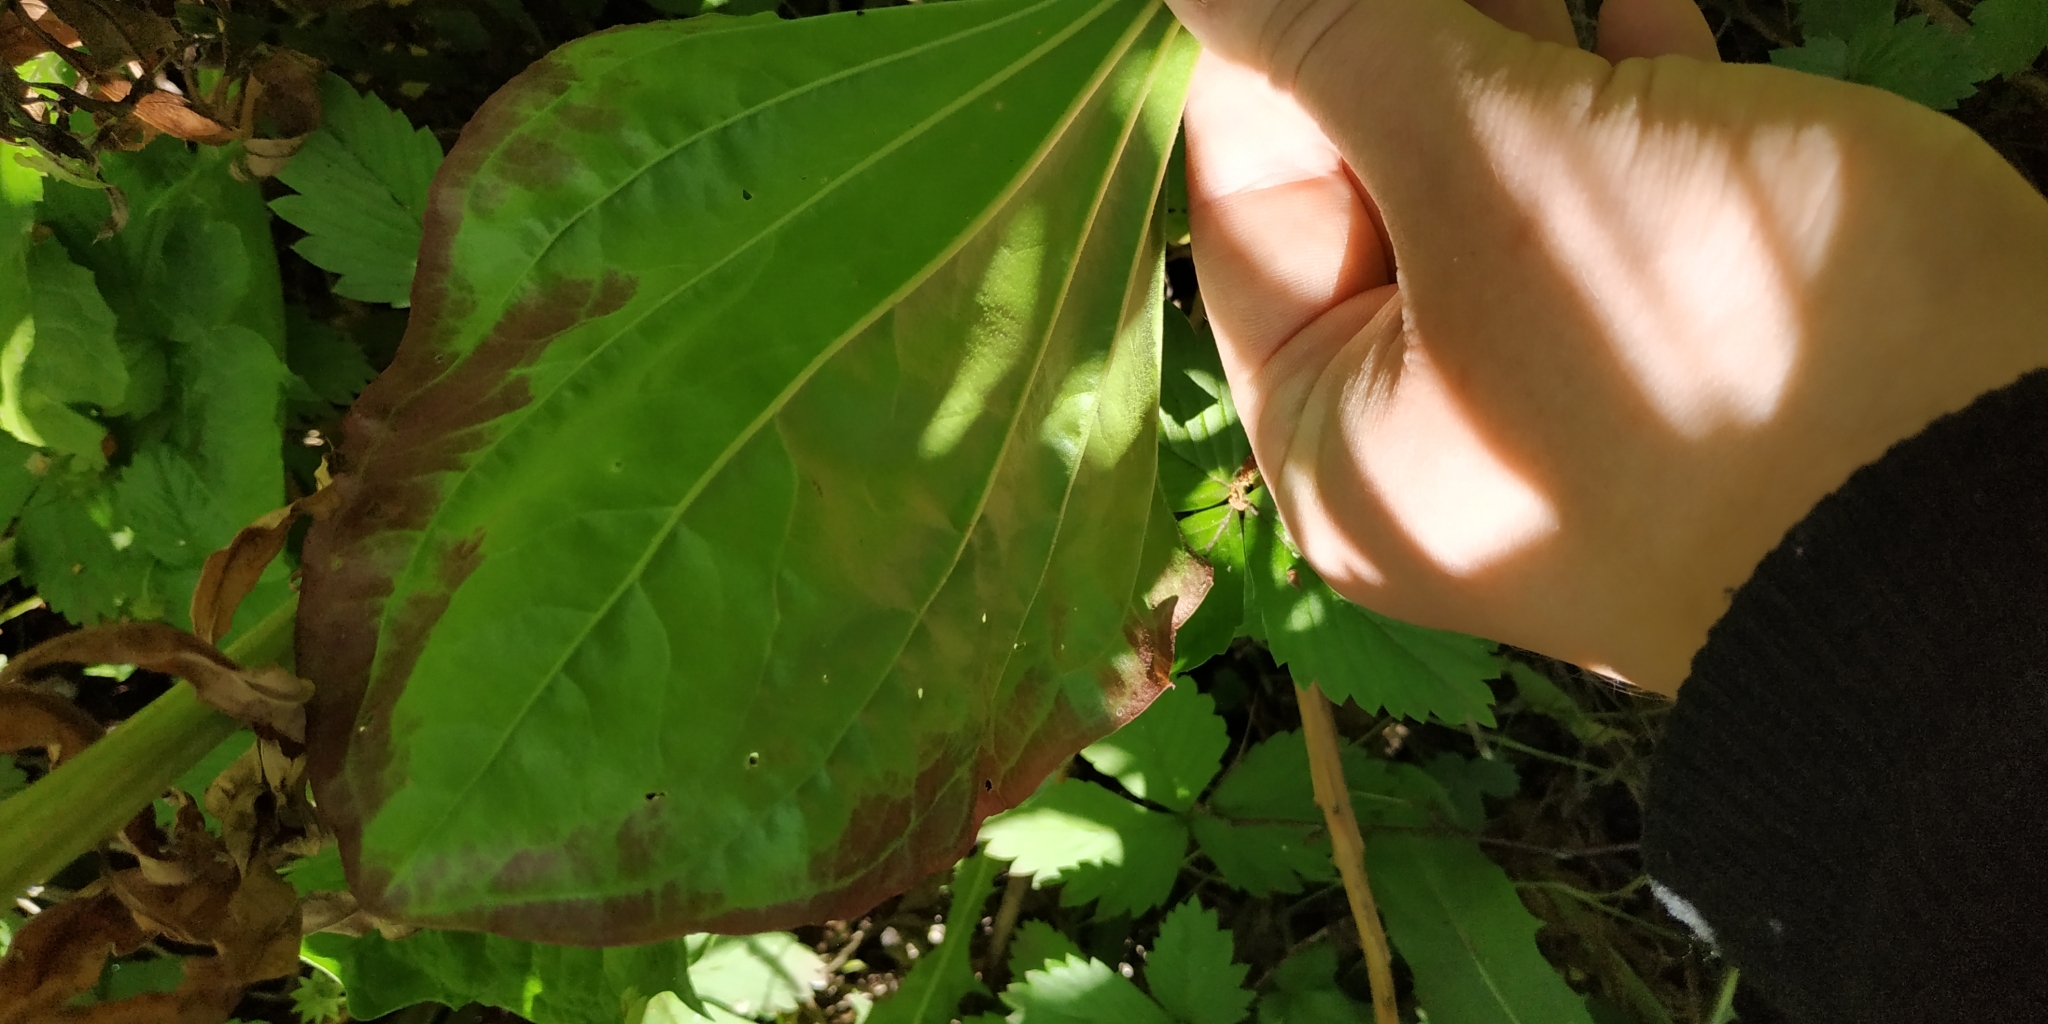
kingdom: Plantae
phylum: Tracheophyta
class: Magnoliopsida
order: Lamiales
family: Plantaginaceae
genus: Plantago
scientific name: Plantago maxima
